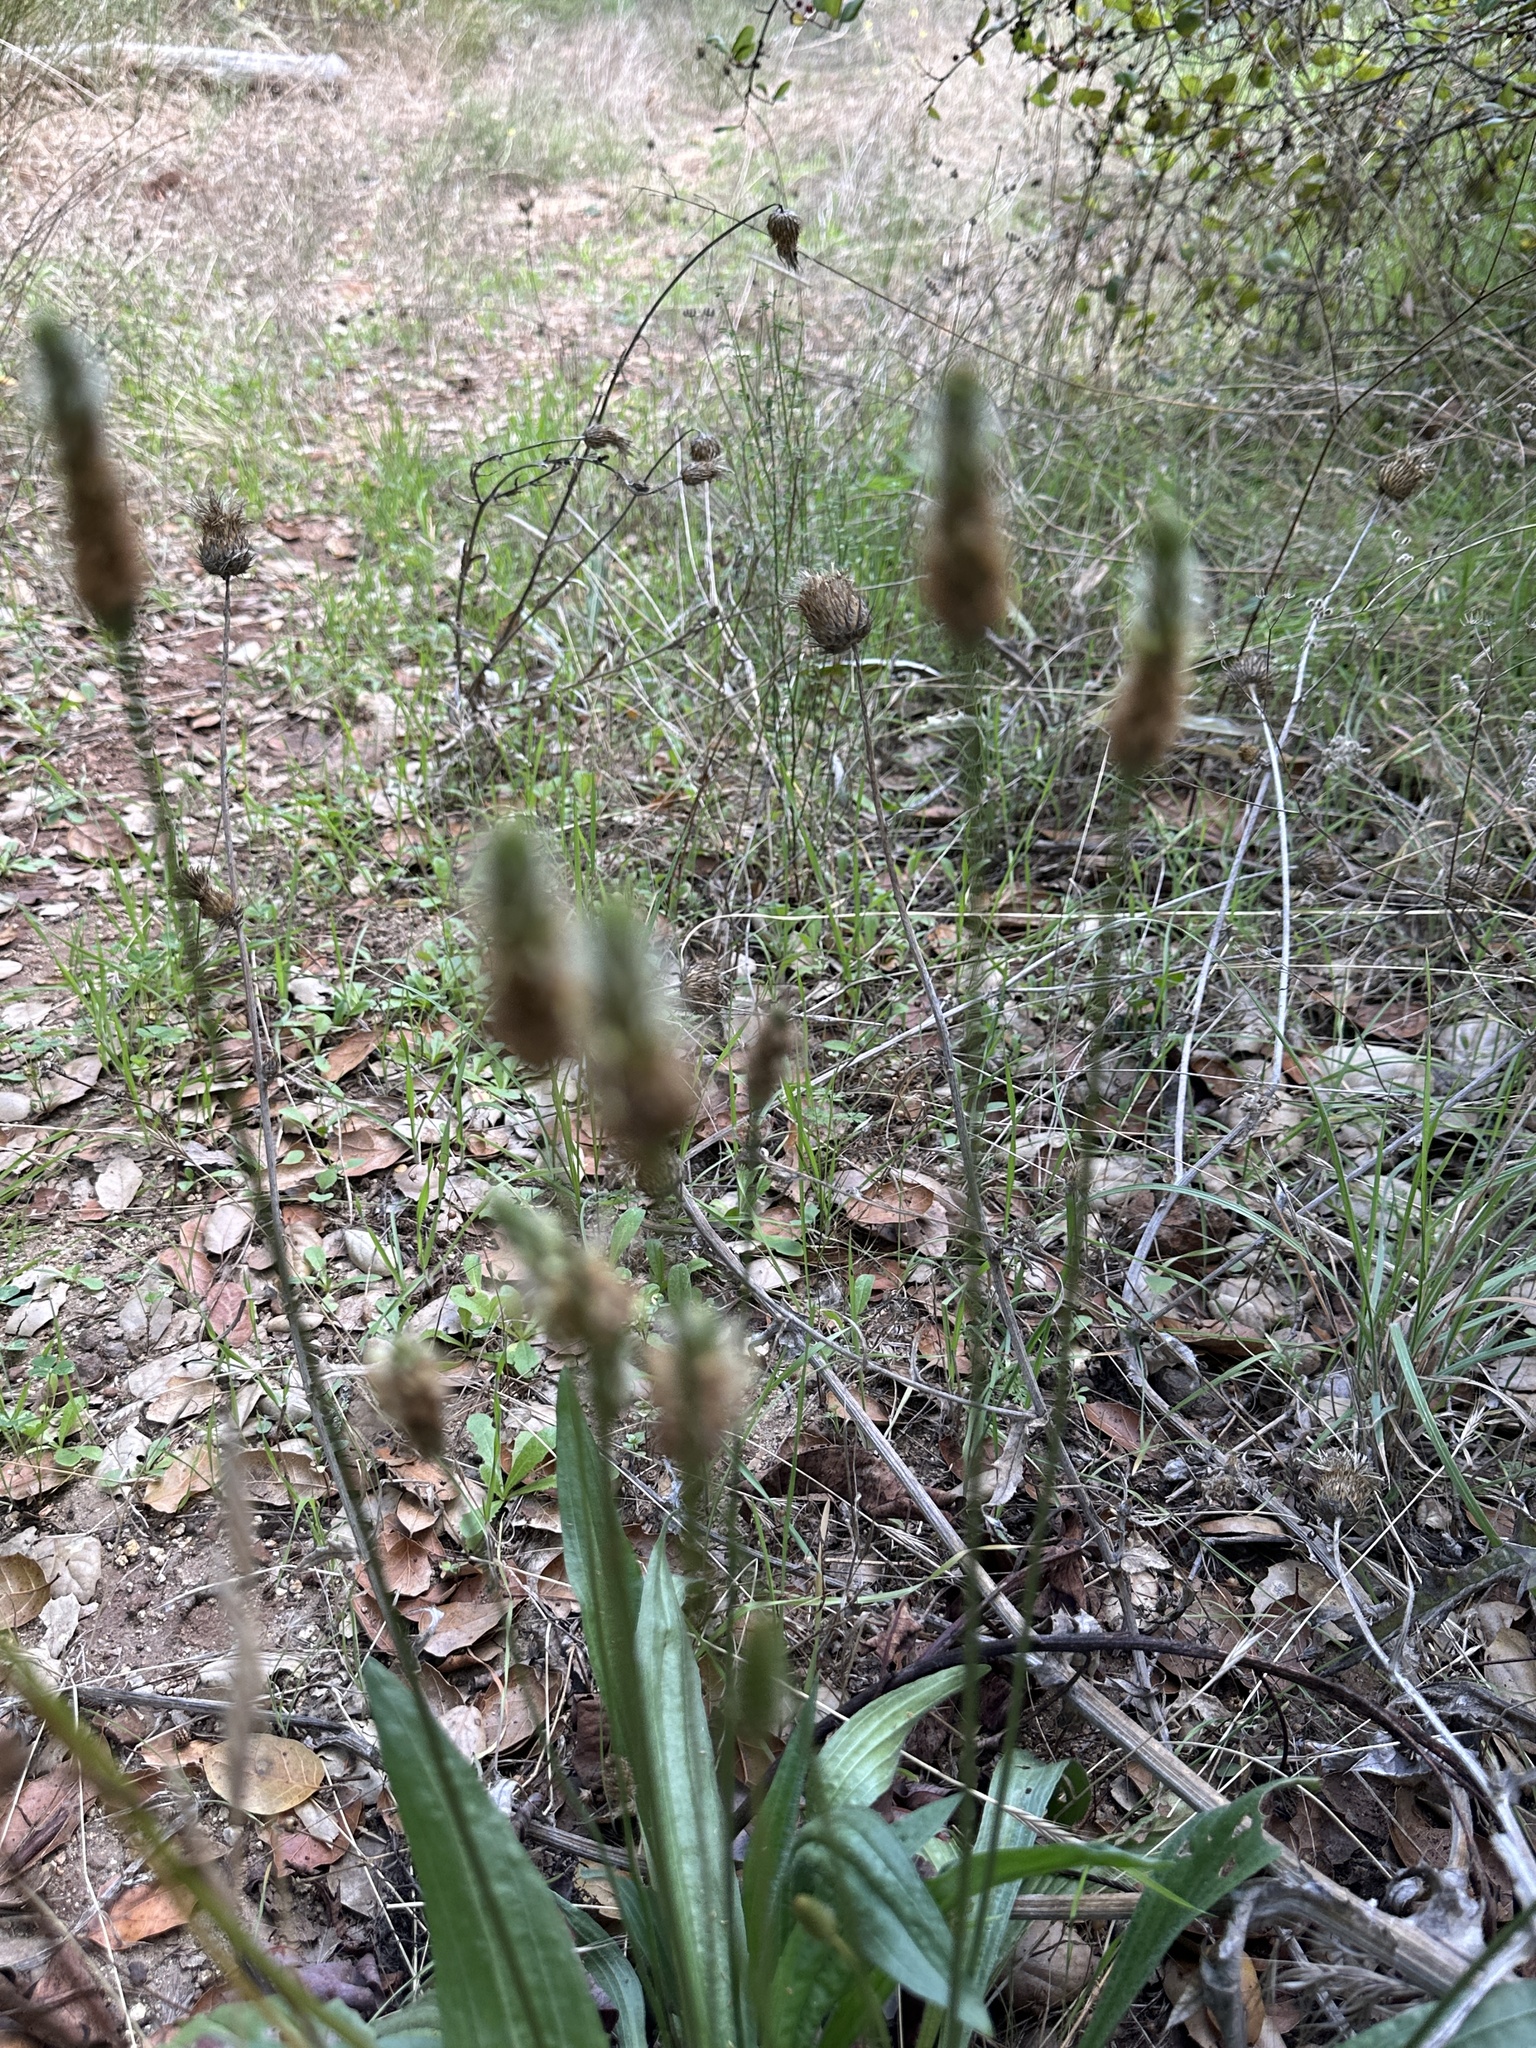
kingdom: Plantae
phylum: Tracheophyta
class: Magnoliopsida
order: Lamiales
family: Plantaginaceae
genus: Plantago
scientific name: Plantago lanceolata
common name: Ribwort plantain
